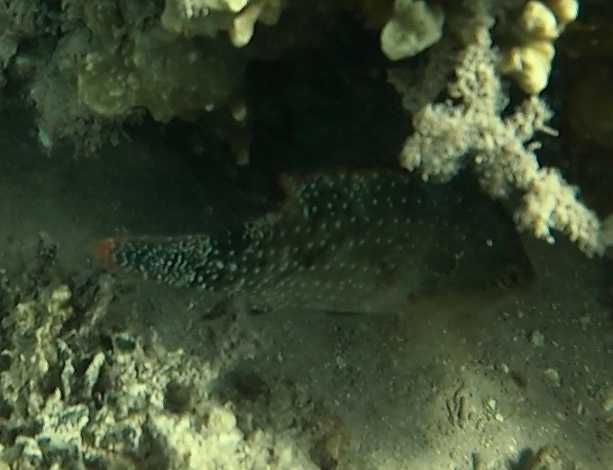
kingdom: Animalia
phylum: Chordata
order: Perciformes
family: Labridae
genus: Cheilinus
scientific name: Cheilinus chlorourus
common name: Floral wrasse
